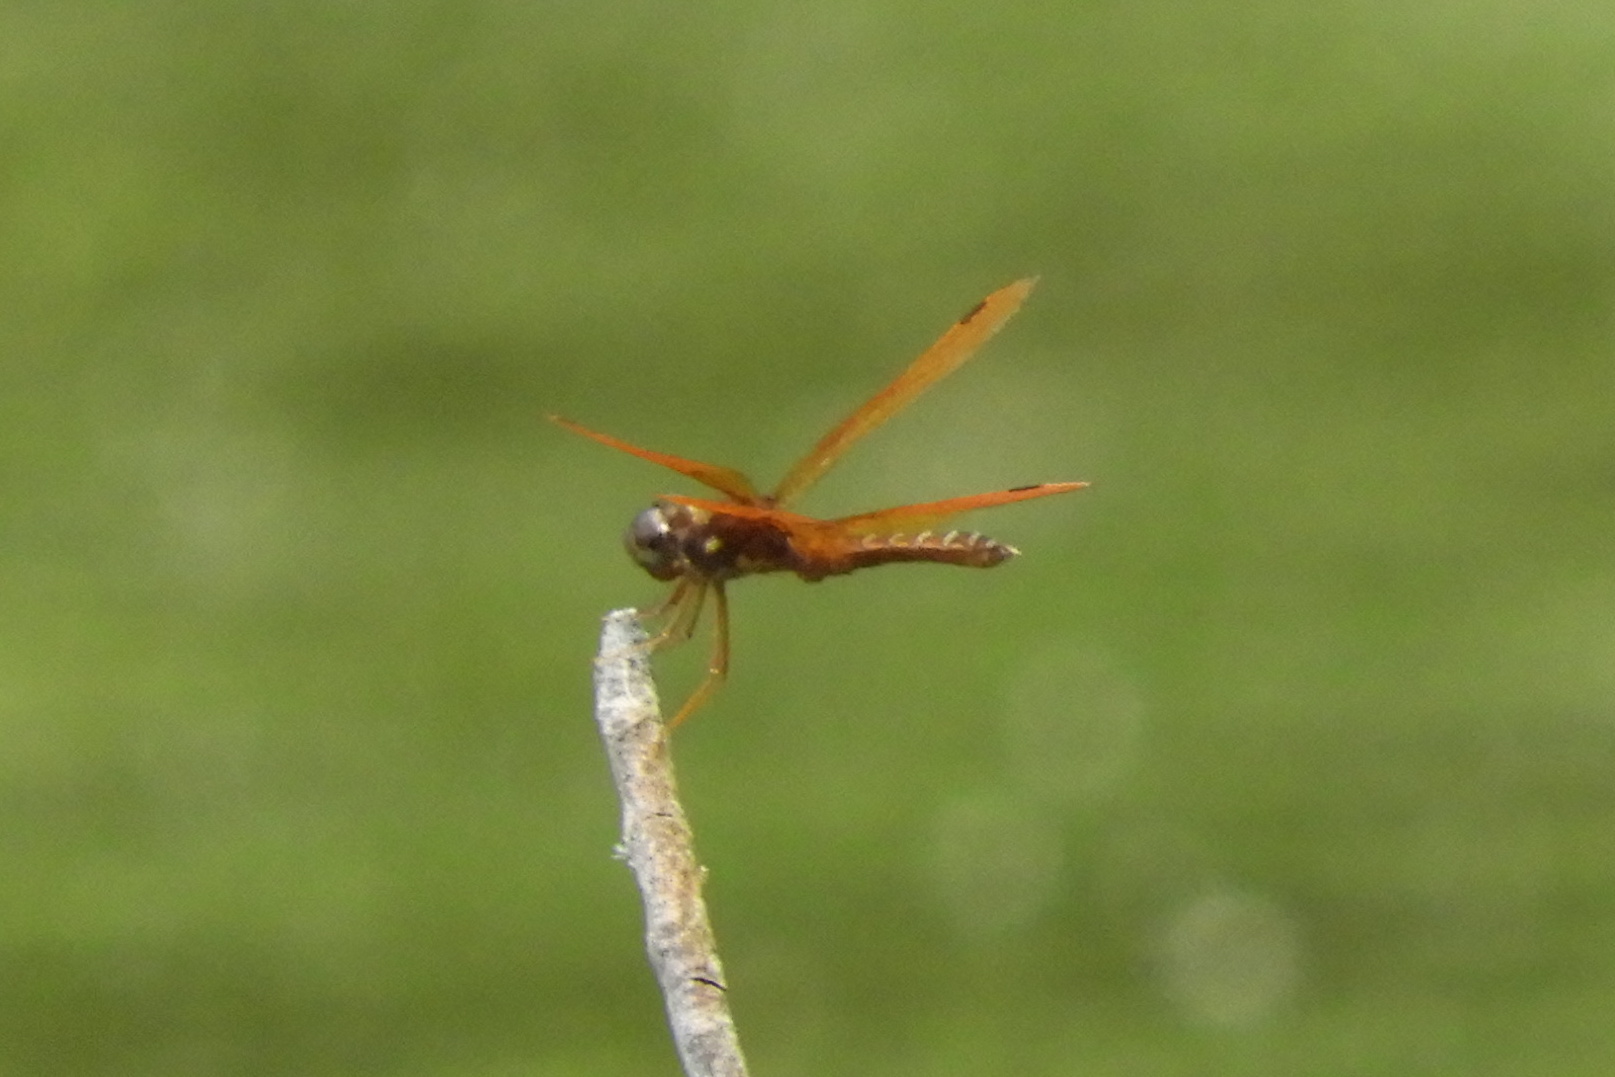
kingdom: Animalia
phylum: Arthropoda
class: Insecta
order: Odonata
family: Libellulidae
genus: Perithemis
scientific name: Perithemis tenera
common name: Eastern amberwing
